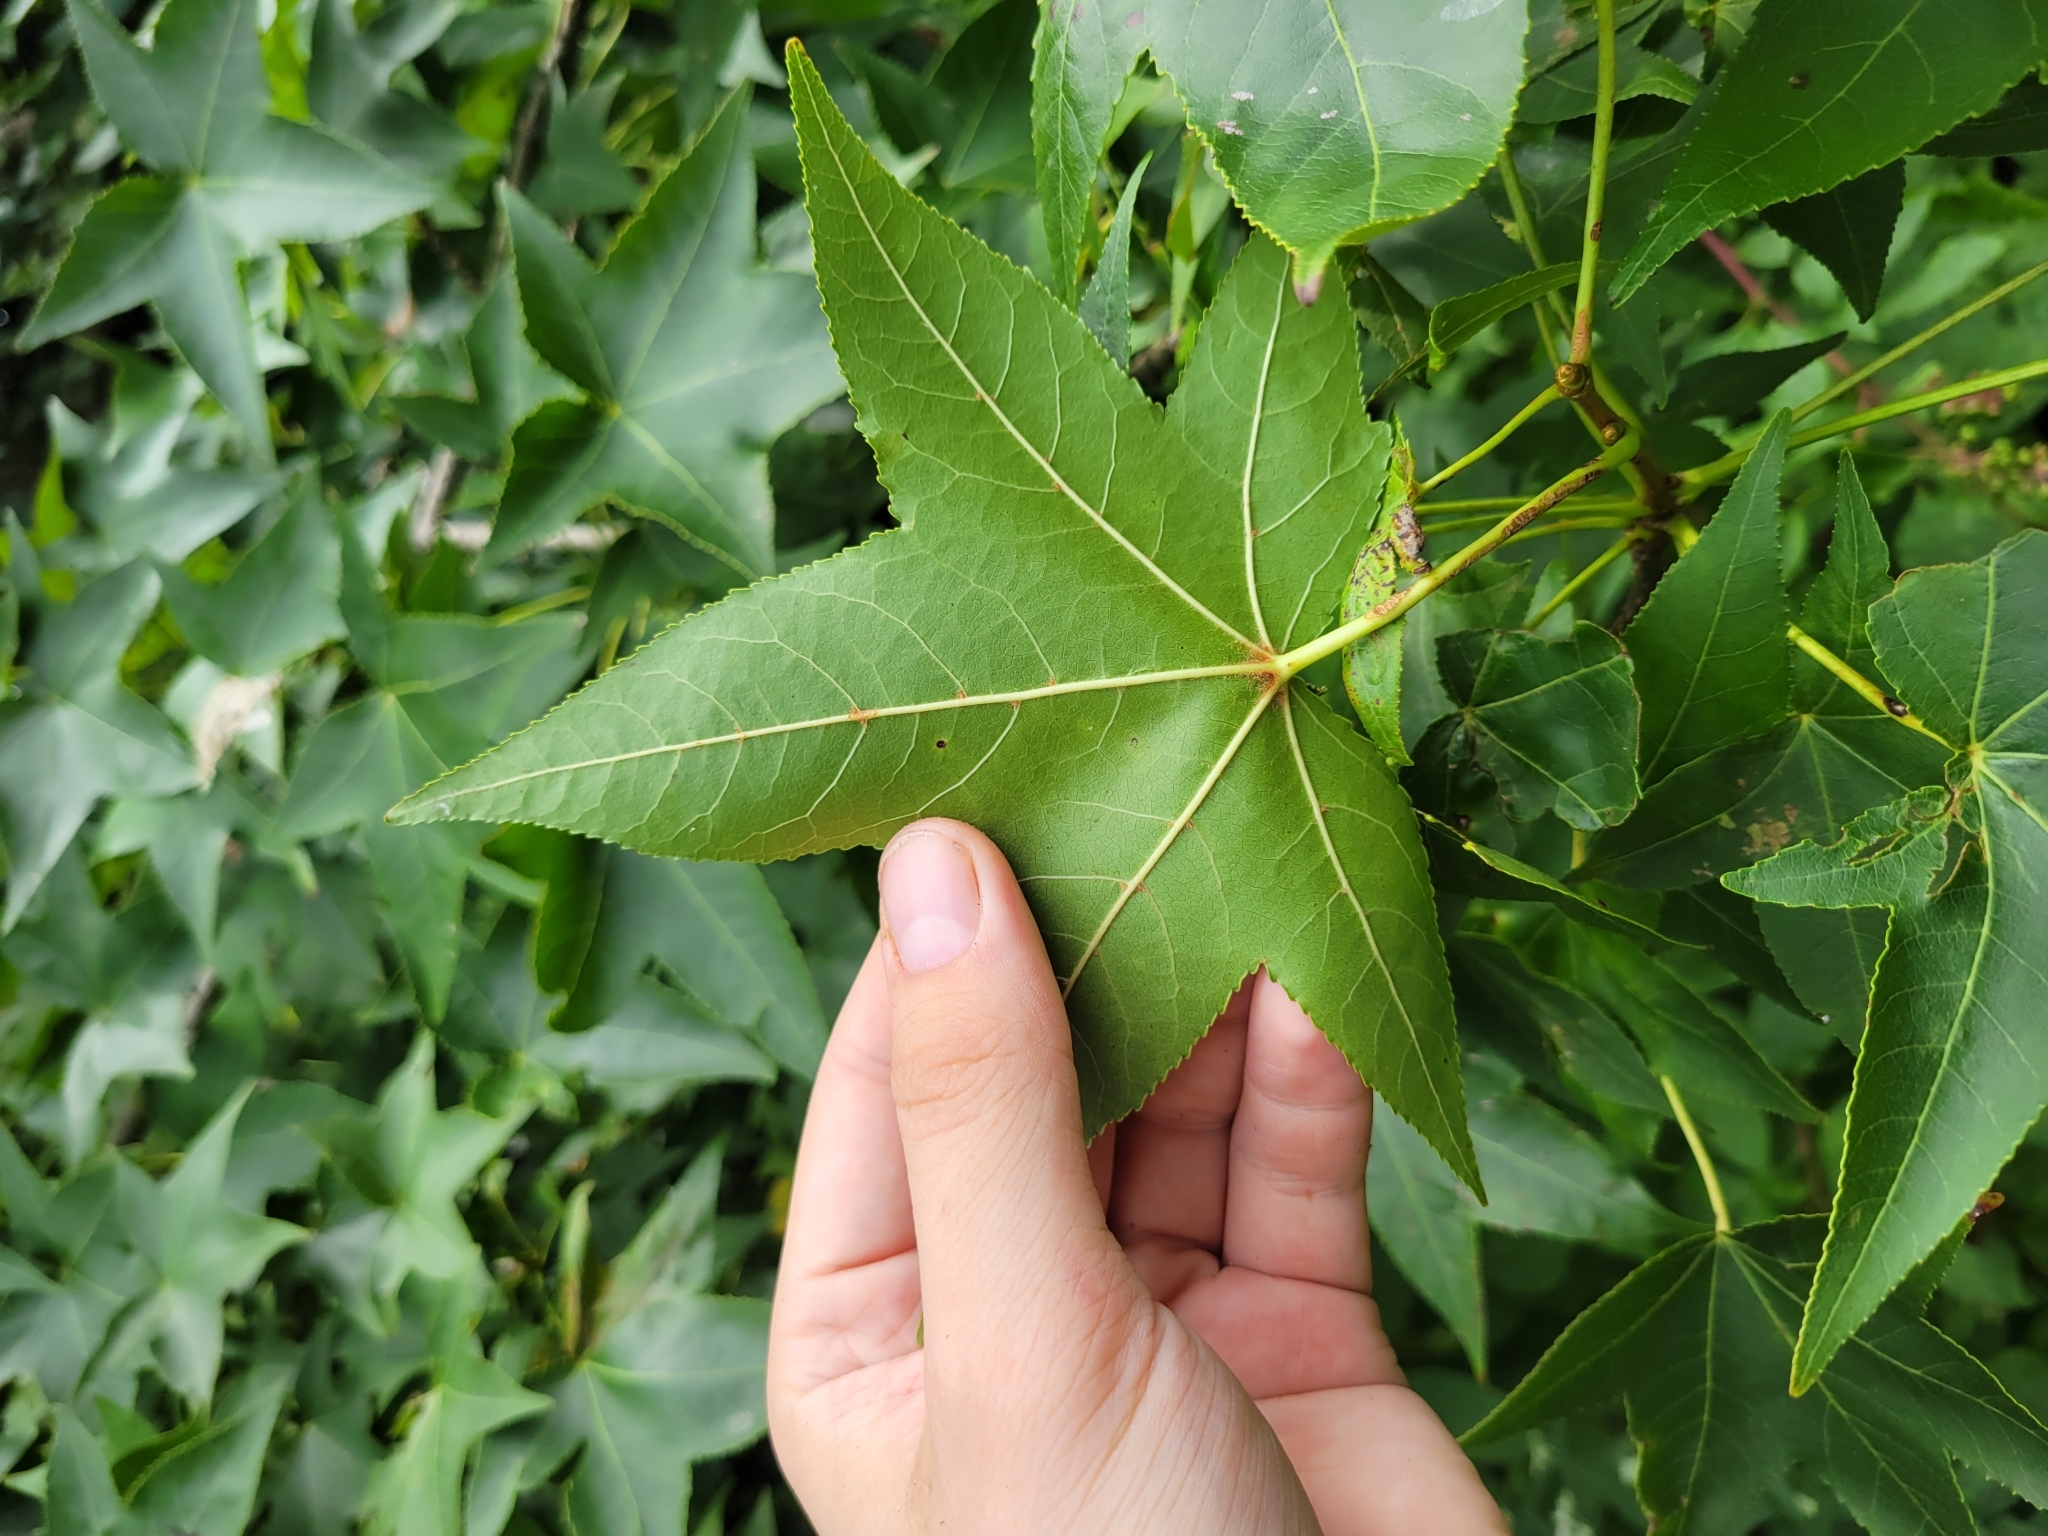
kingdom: Plantae
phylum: Tracheophyta
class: Magnoliopsida
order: Saxifragales
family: Altingiaceae
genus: Liquidambar
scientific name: Liquidambar styraciflua
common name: Sweet gum
